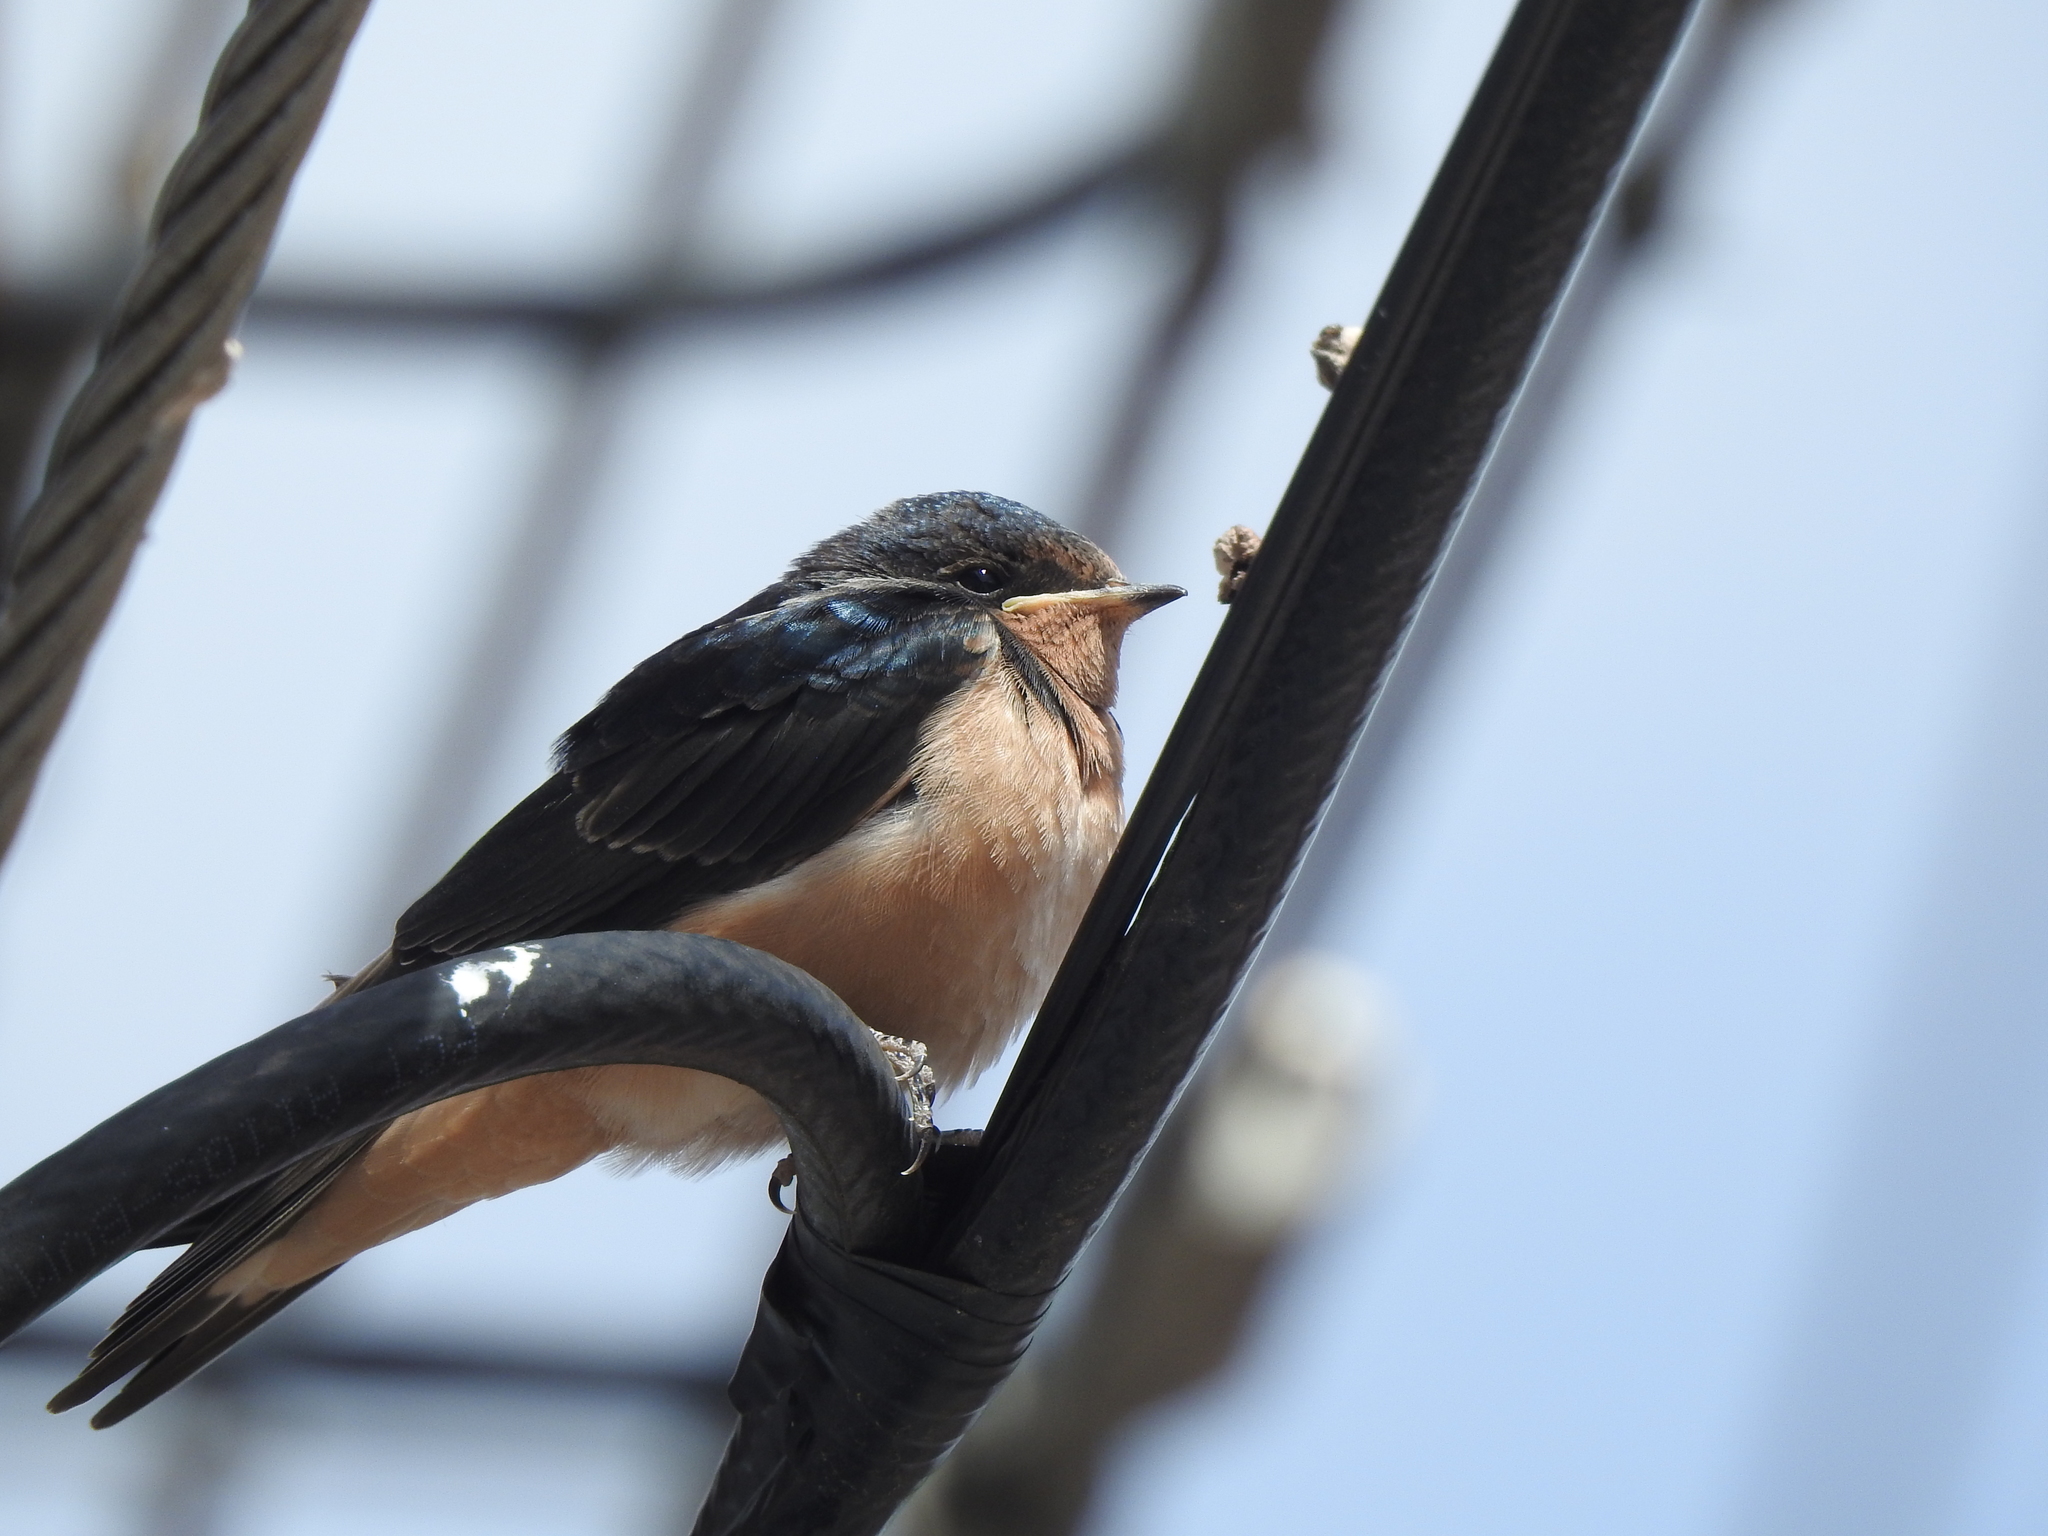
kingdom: Animalia
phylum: Chordata
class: Aves
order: Passeriformes
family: Hirundinidae
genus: Hirundo
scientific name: Hirundo rustica
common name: Barn swallow
